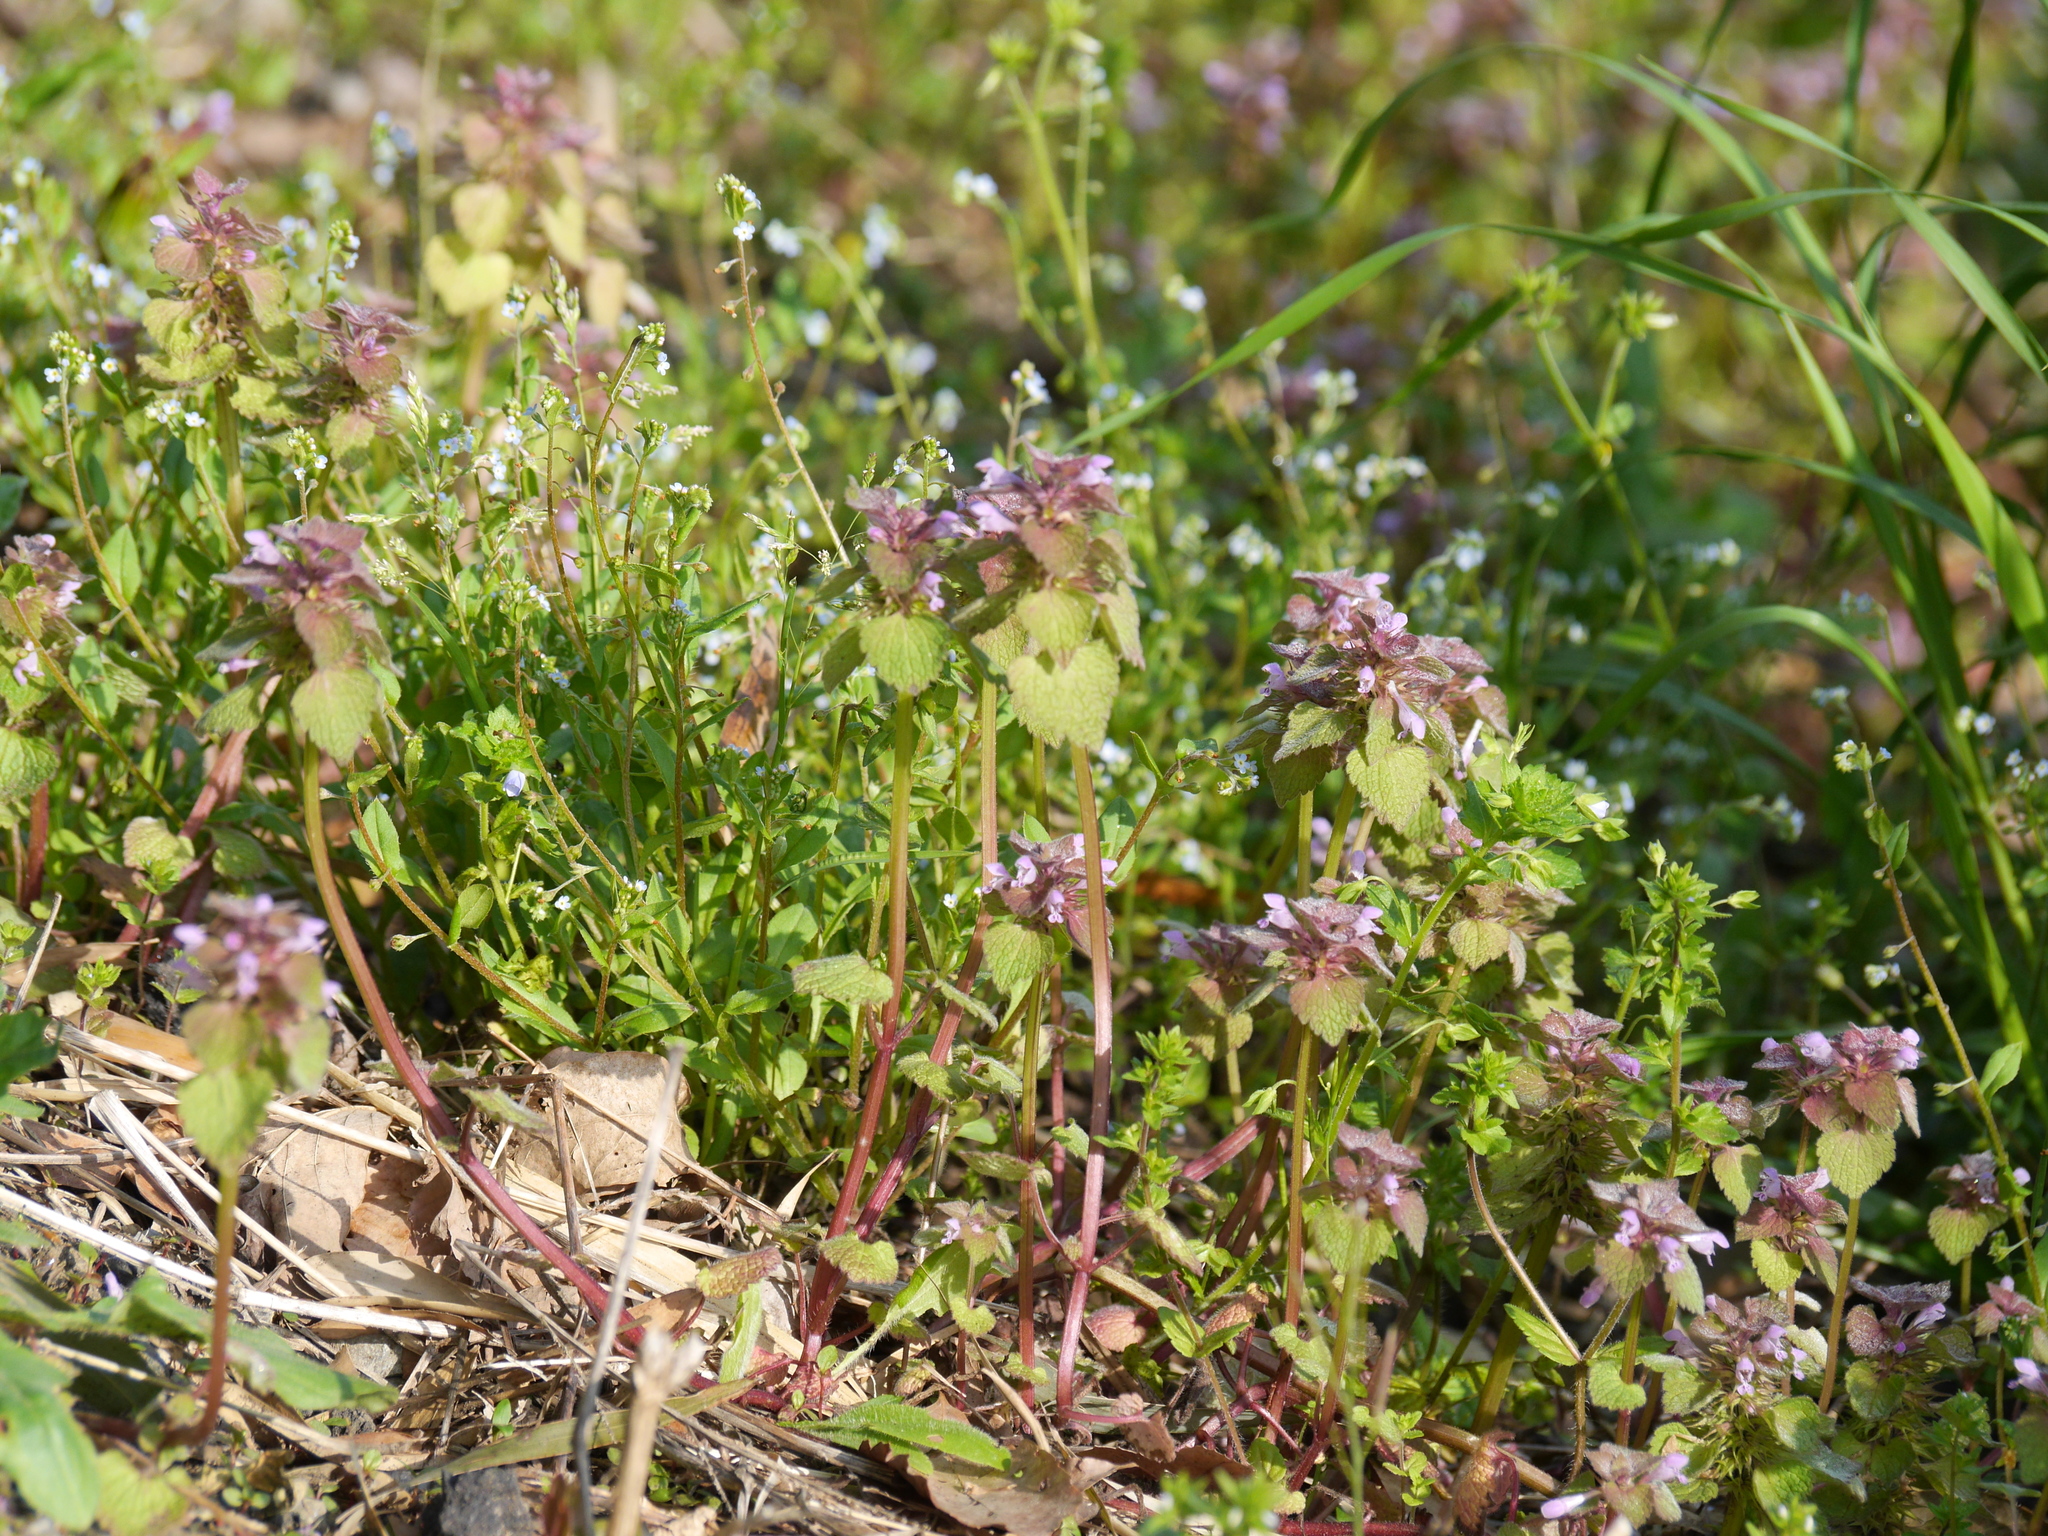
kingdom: Plantae
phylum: Tracheophyta
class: Magnoliopsida
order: Lamiales
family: Lamiaceae
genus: Lamium
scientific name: Lamium purpureum
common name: Red dead-nettle
